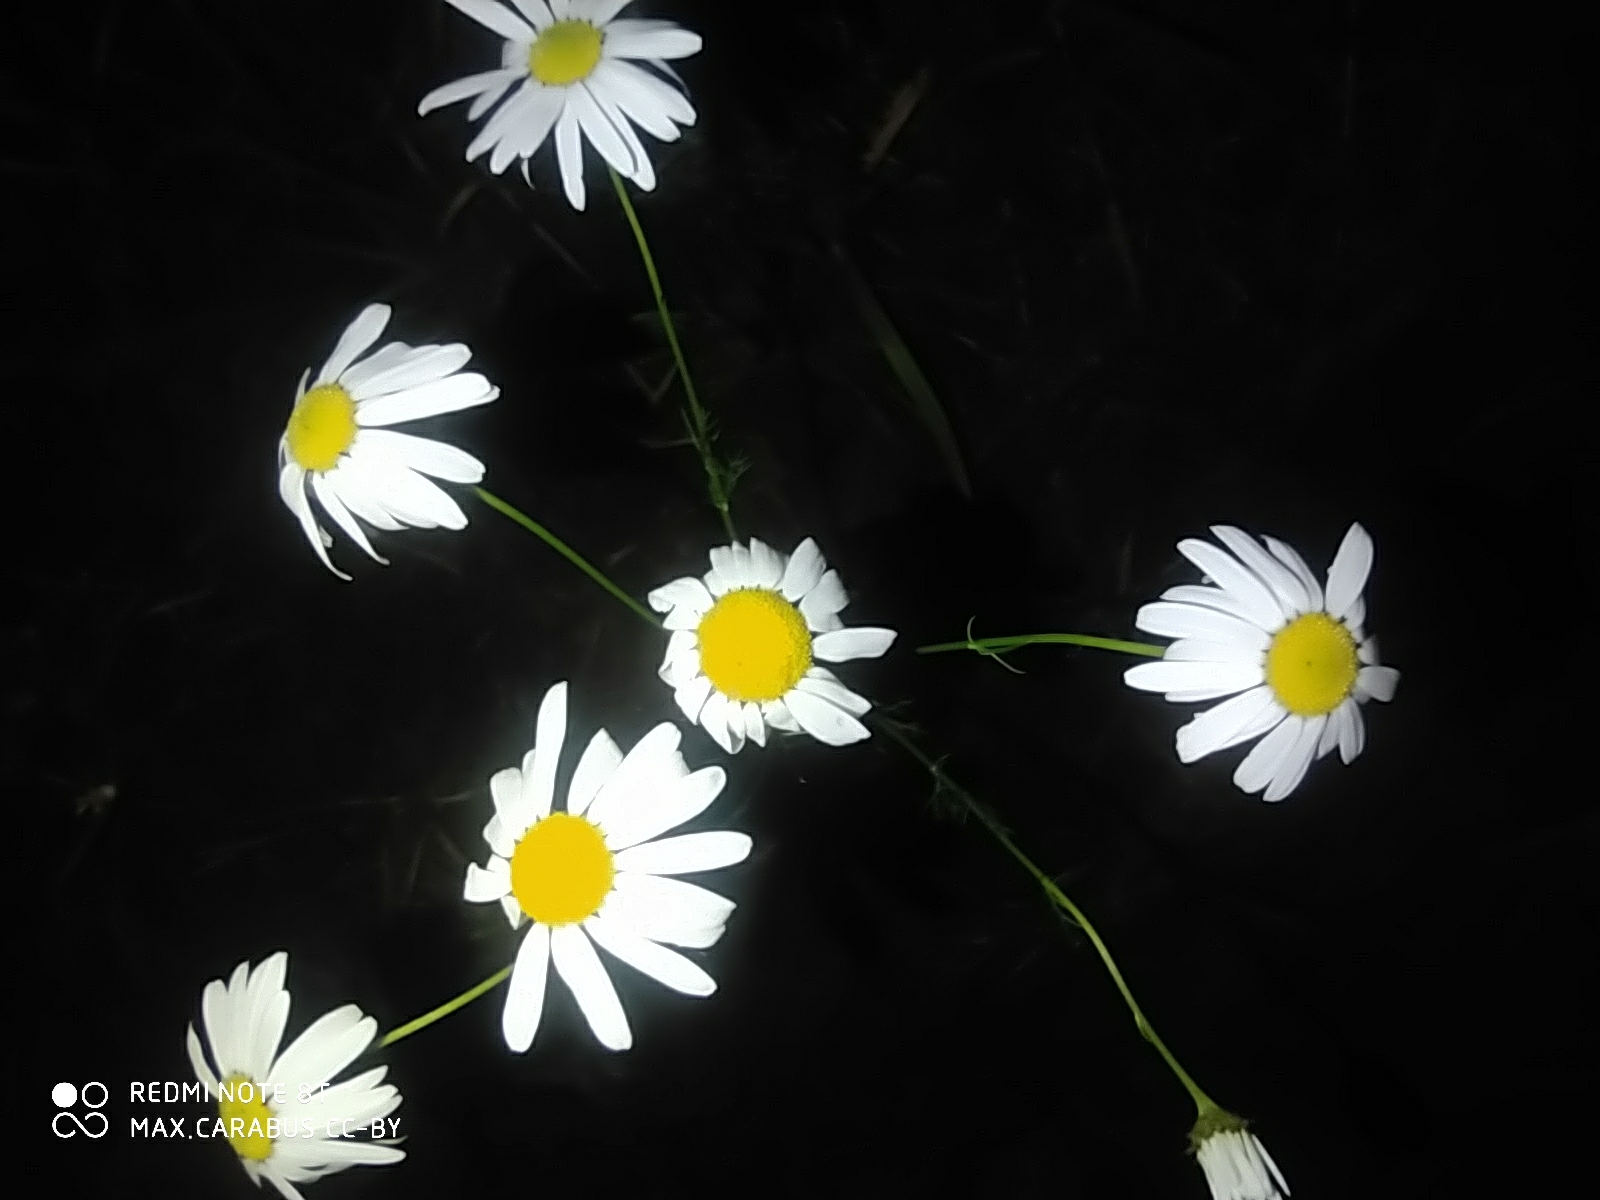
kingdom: Plantae
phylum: Tracheophyta
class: Magnoliopsida
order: Asterales
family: Asteraceae
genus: Tripleurospermum
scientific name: Tripleurospermum inodorum
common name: Scentless mayweed
